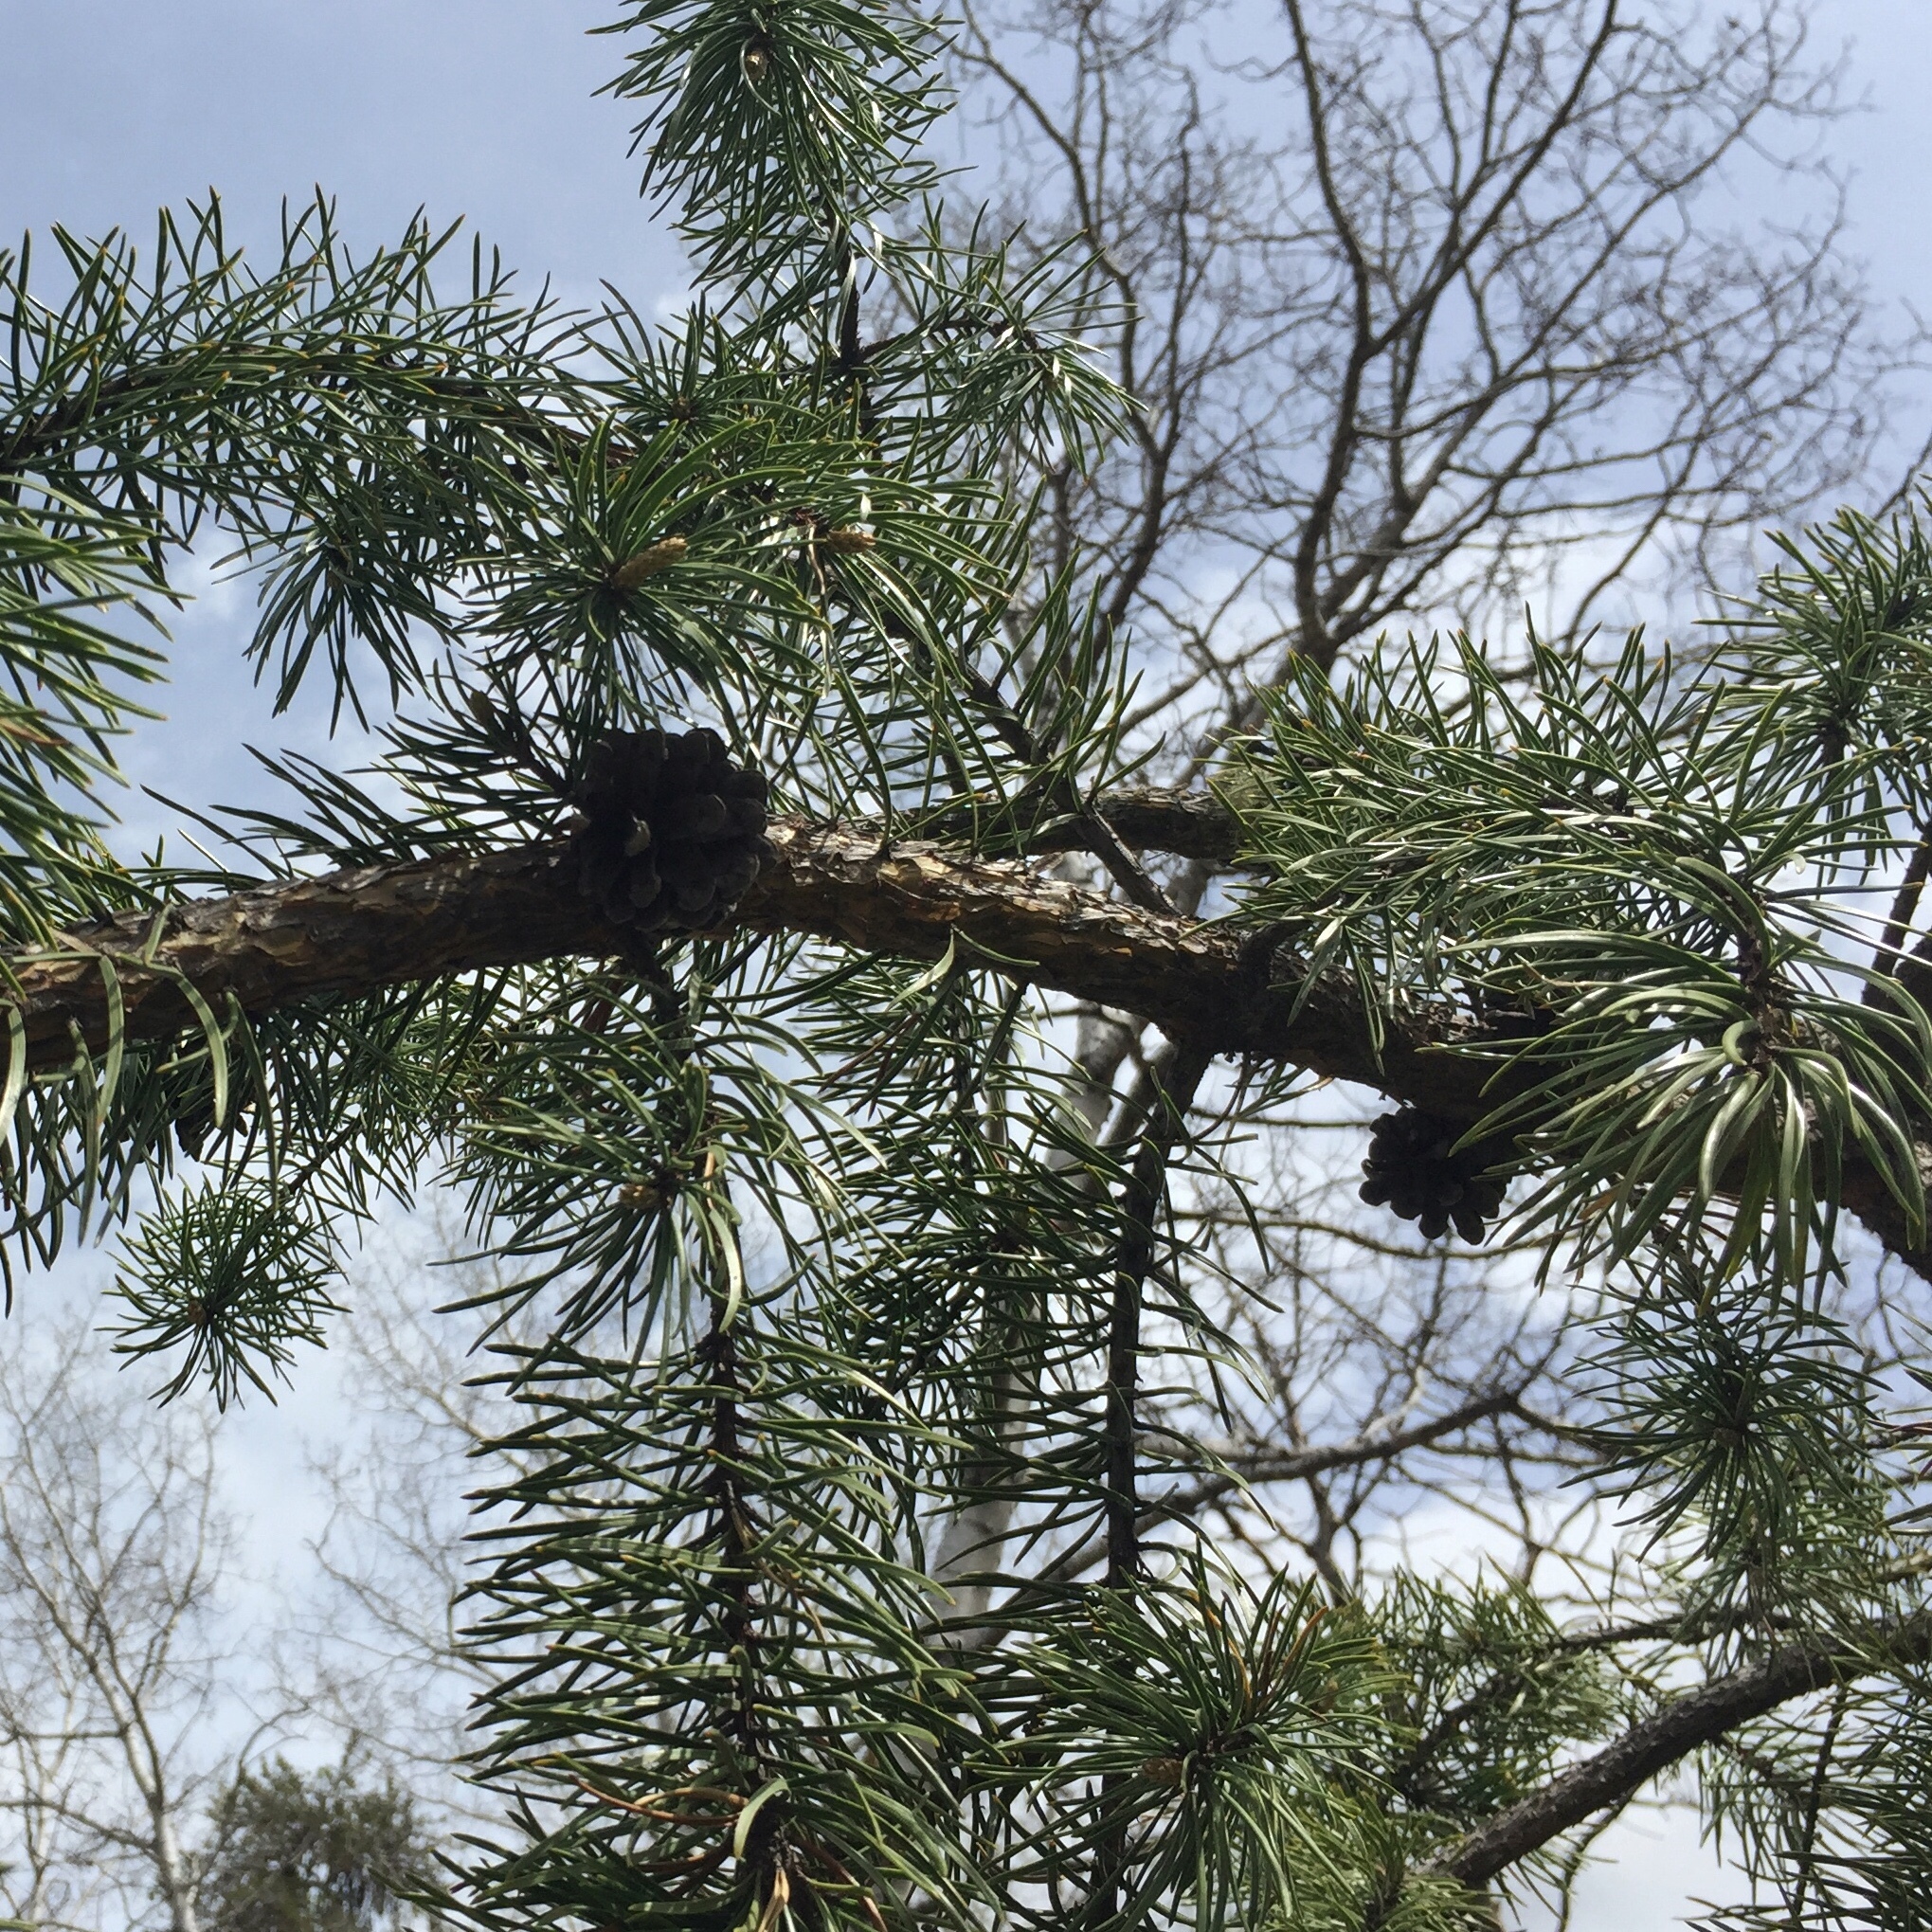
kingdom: Plantae
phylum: Tracheophyta
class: Pinopsida
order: Pinales
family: Pinaceae
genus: Pinus
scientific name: Pinus banksiana
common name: Jack pine
